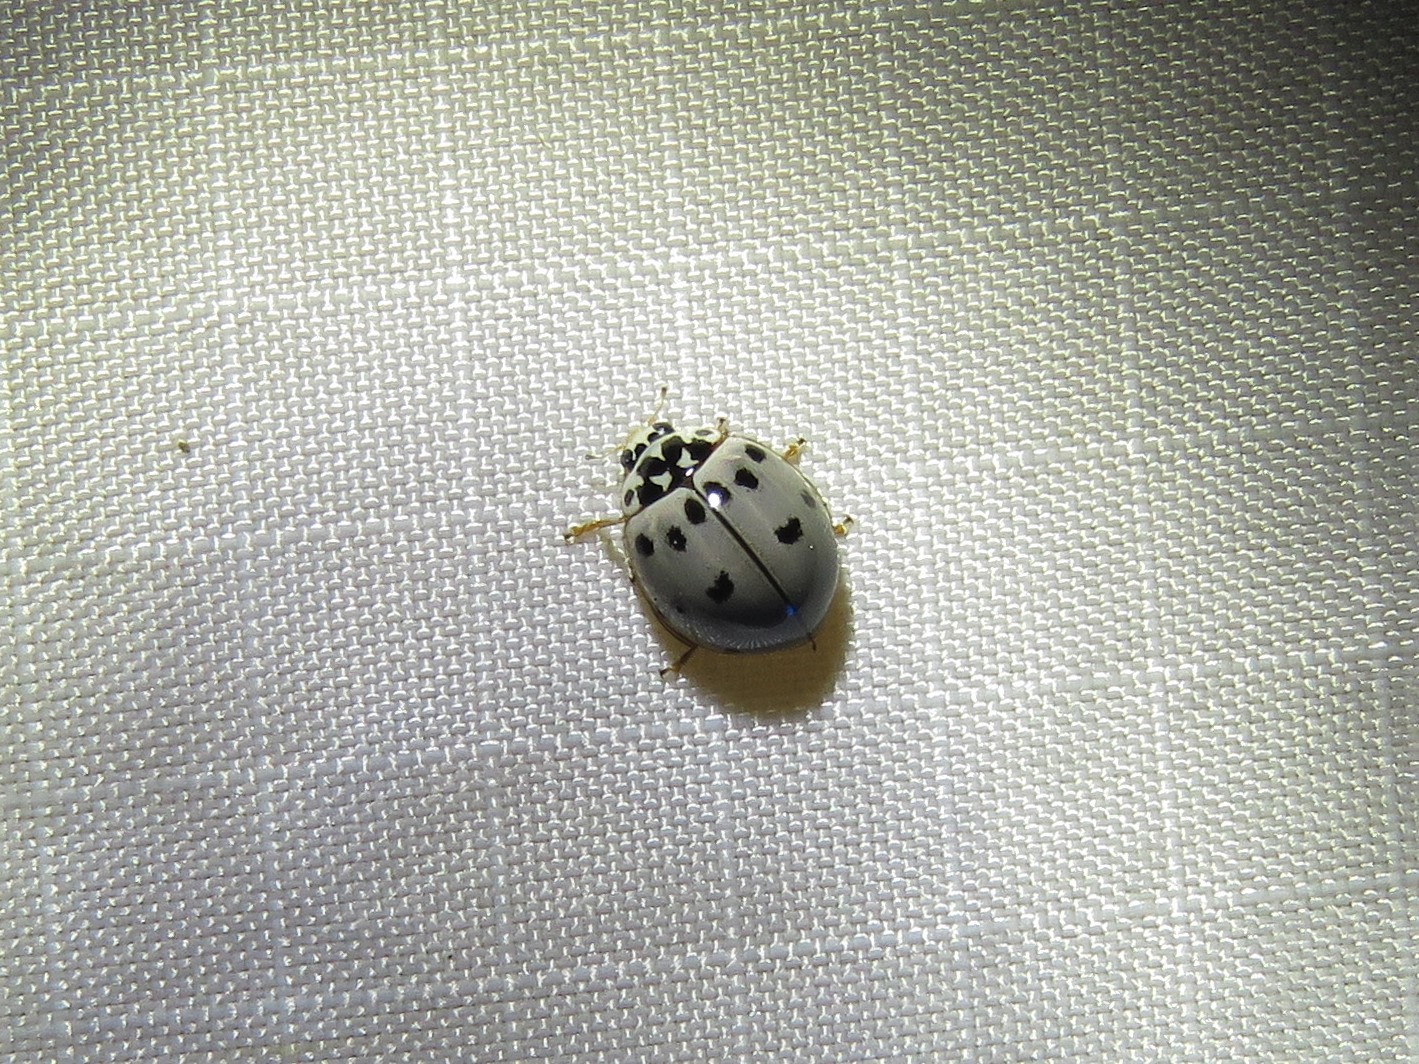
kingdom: Animalia
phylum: Arthropoda
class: Insecta
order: Coleoptera
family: Coccinellidae
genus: Olla
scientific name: Olla v-nigrum
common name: Ashy gray lady beetle
